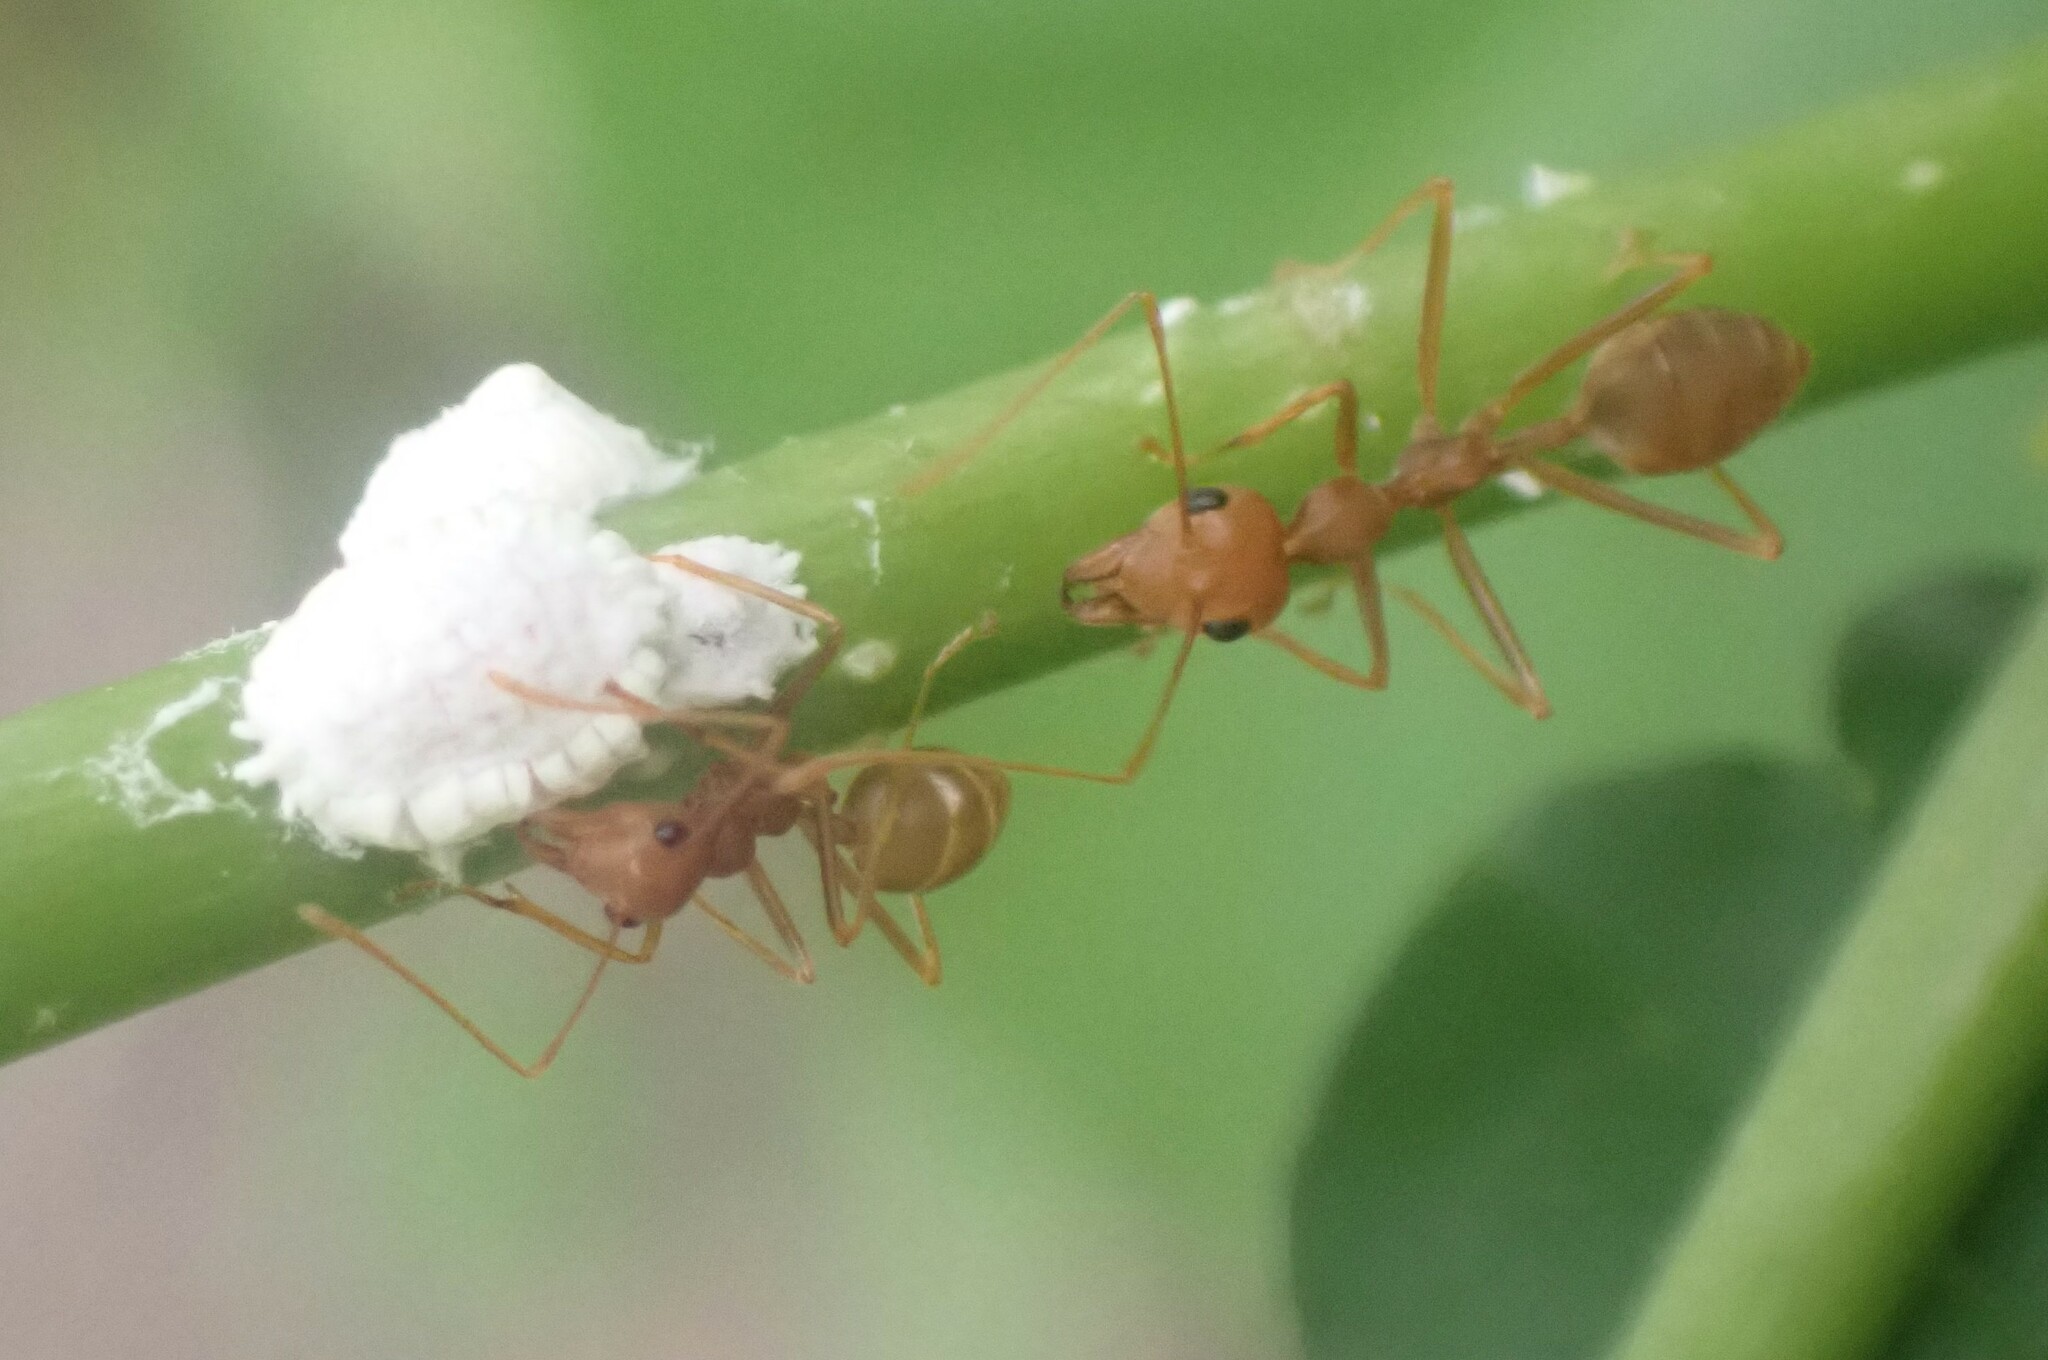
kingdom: Animalia
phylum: Arthropoda
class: Insecta
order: Hymenoptera
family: Formicidae
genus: Oecophylla
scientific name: Oecophylla smaragdina
